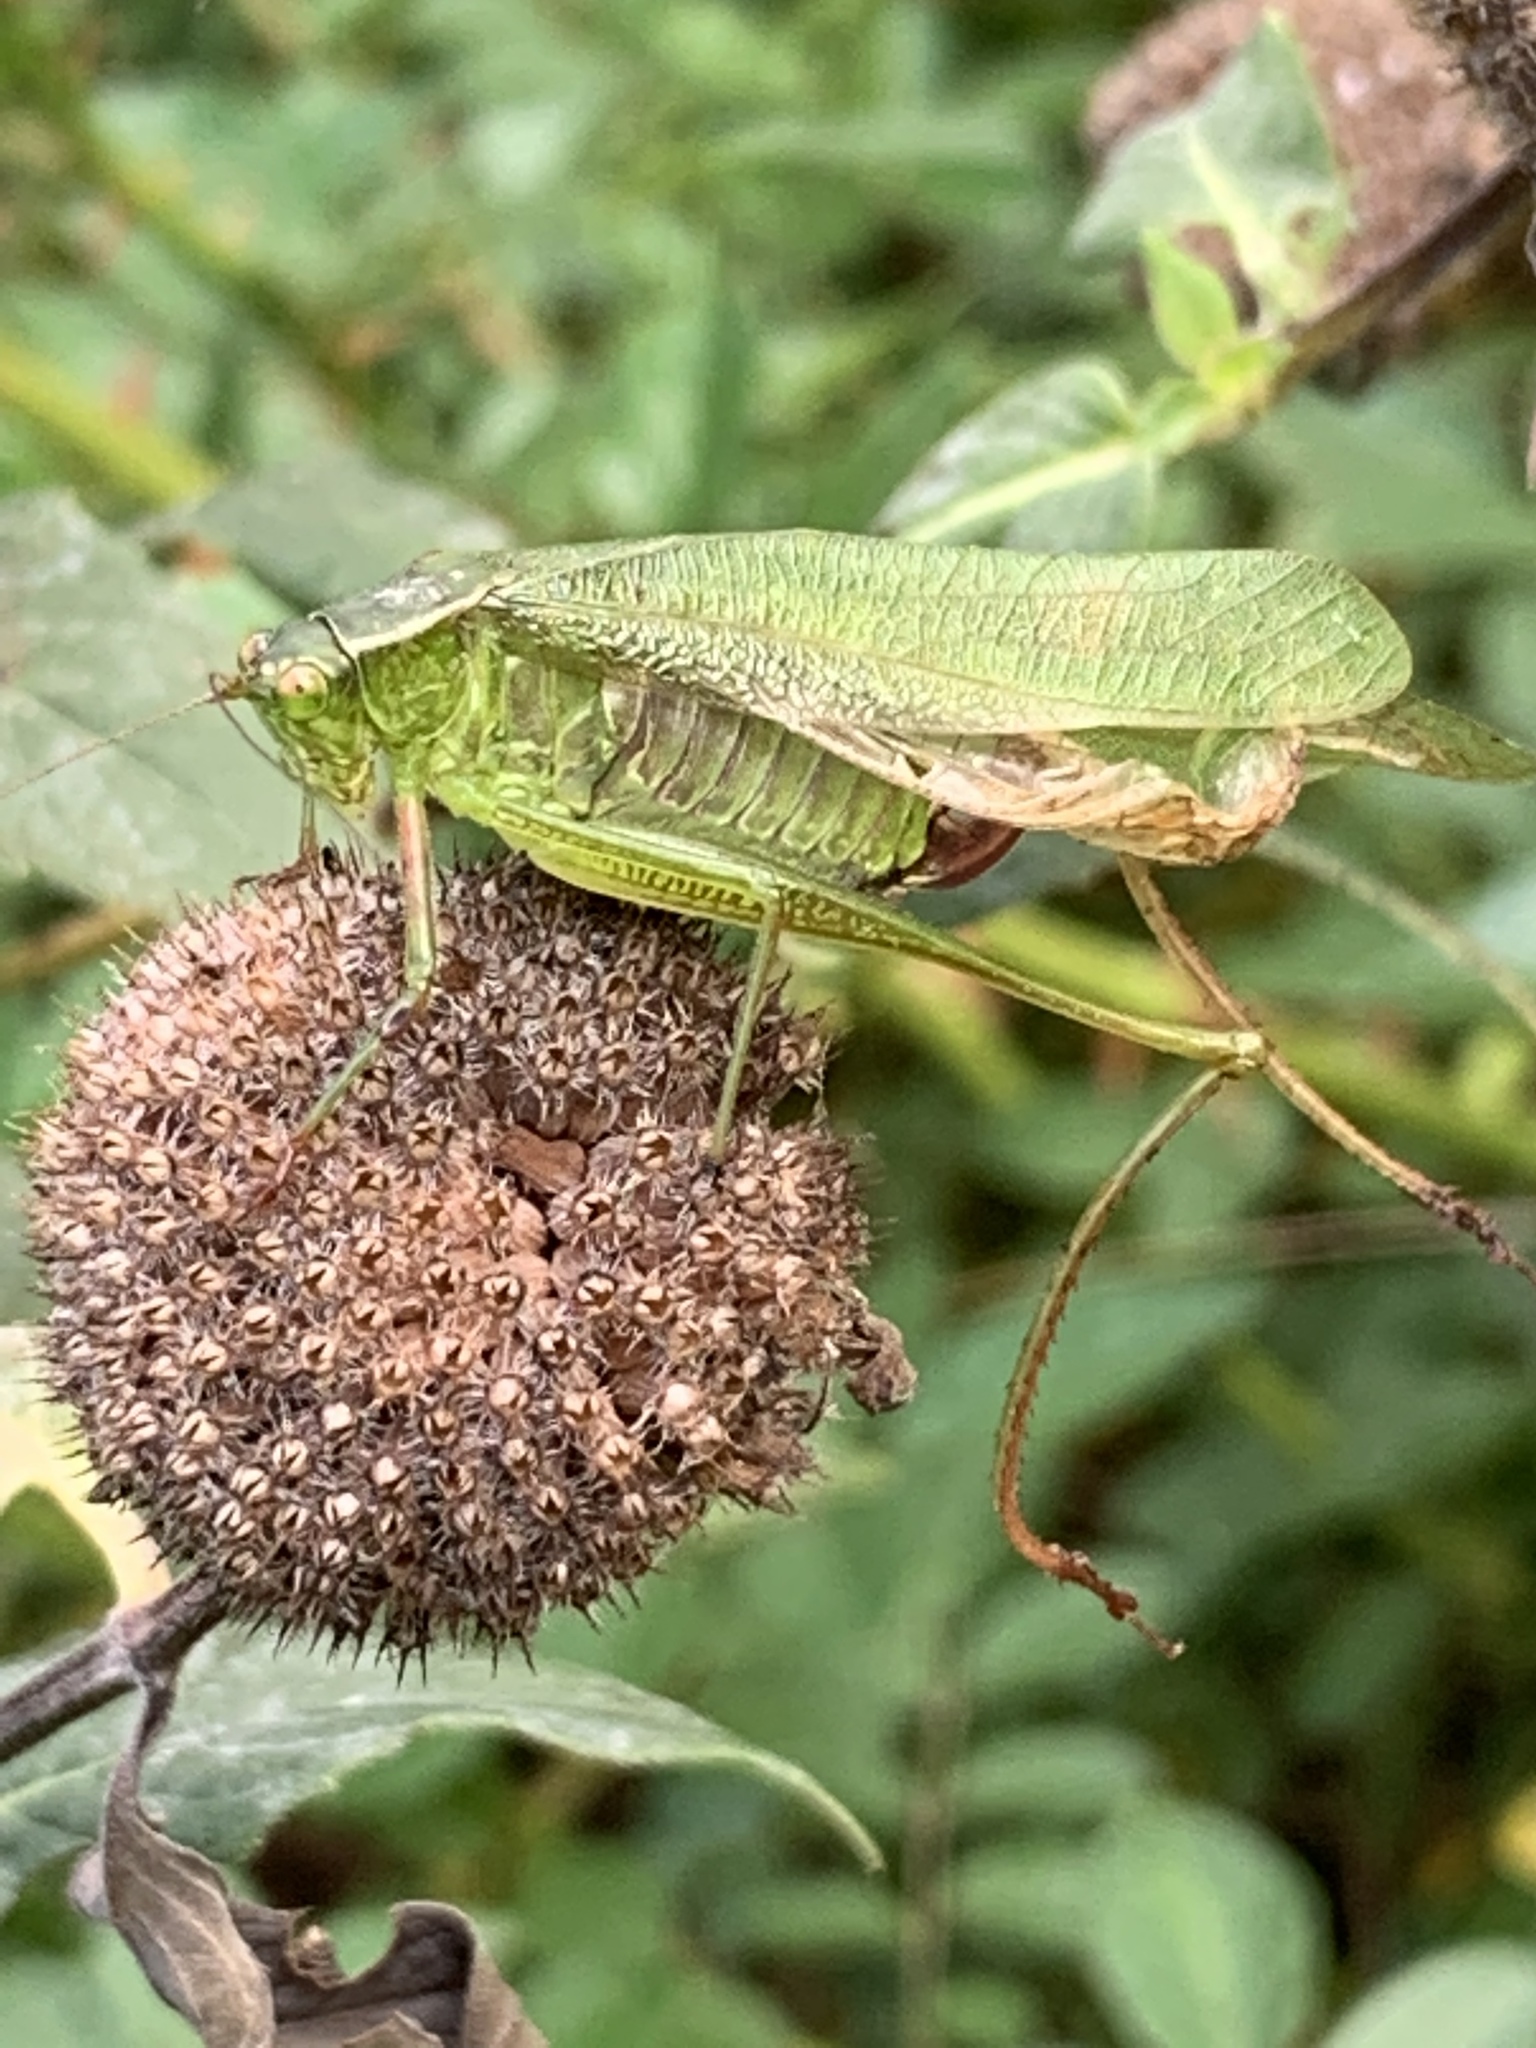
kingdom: Animalia
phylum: Arthropoda
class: Insecta
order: Orthoptera
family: Tettigoniidae
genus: Scudderia
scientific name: Scudderia furcata
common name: Fork-tailed bush katydid
